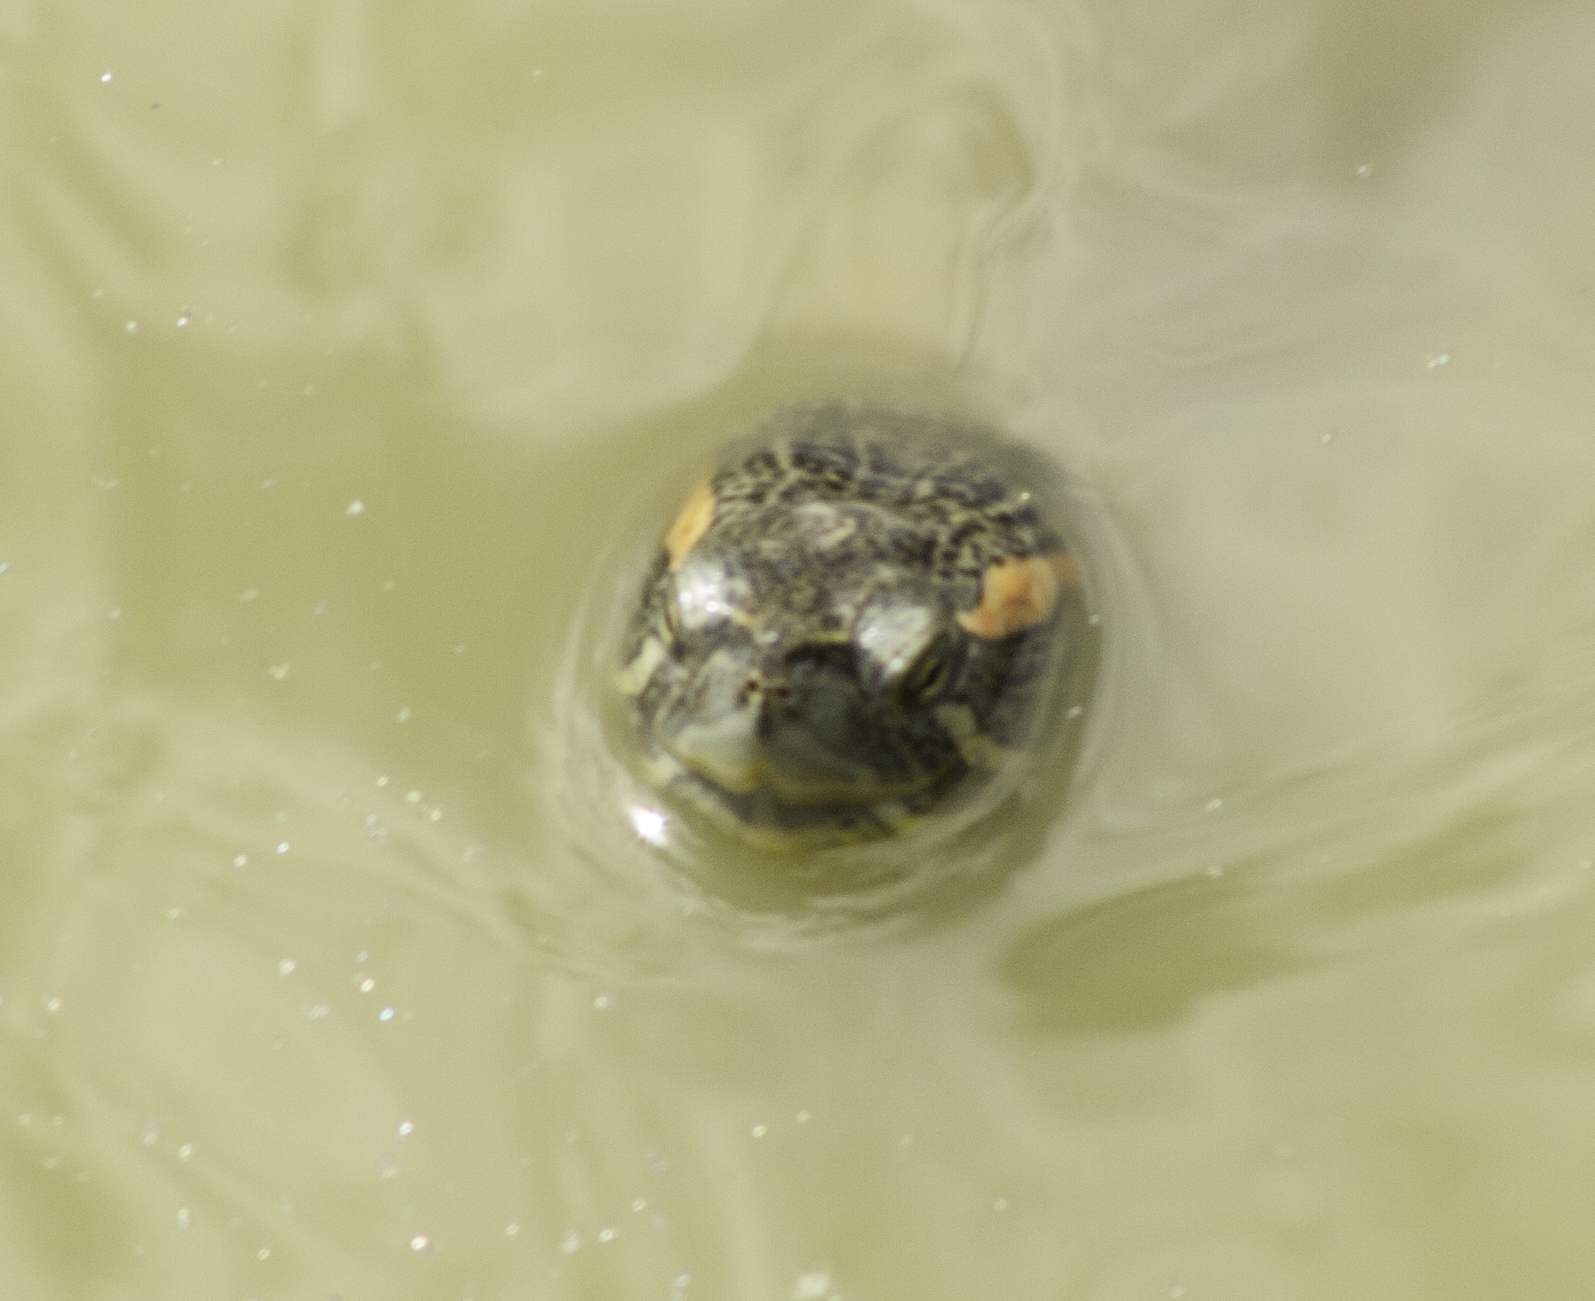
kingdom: Animalia
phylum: Chordata
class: Testudines
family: Emydidae
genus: Trachemys
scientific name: Trachemys scripta
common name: Slider
